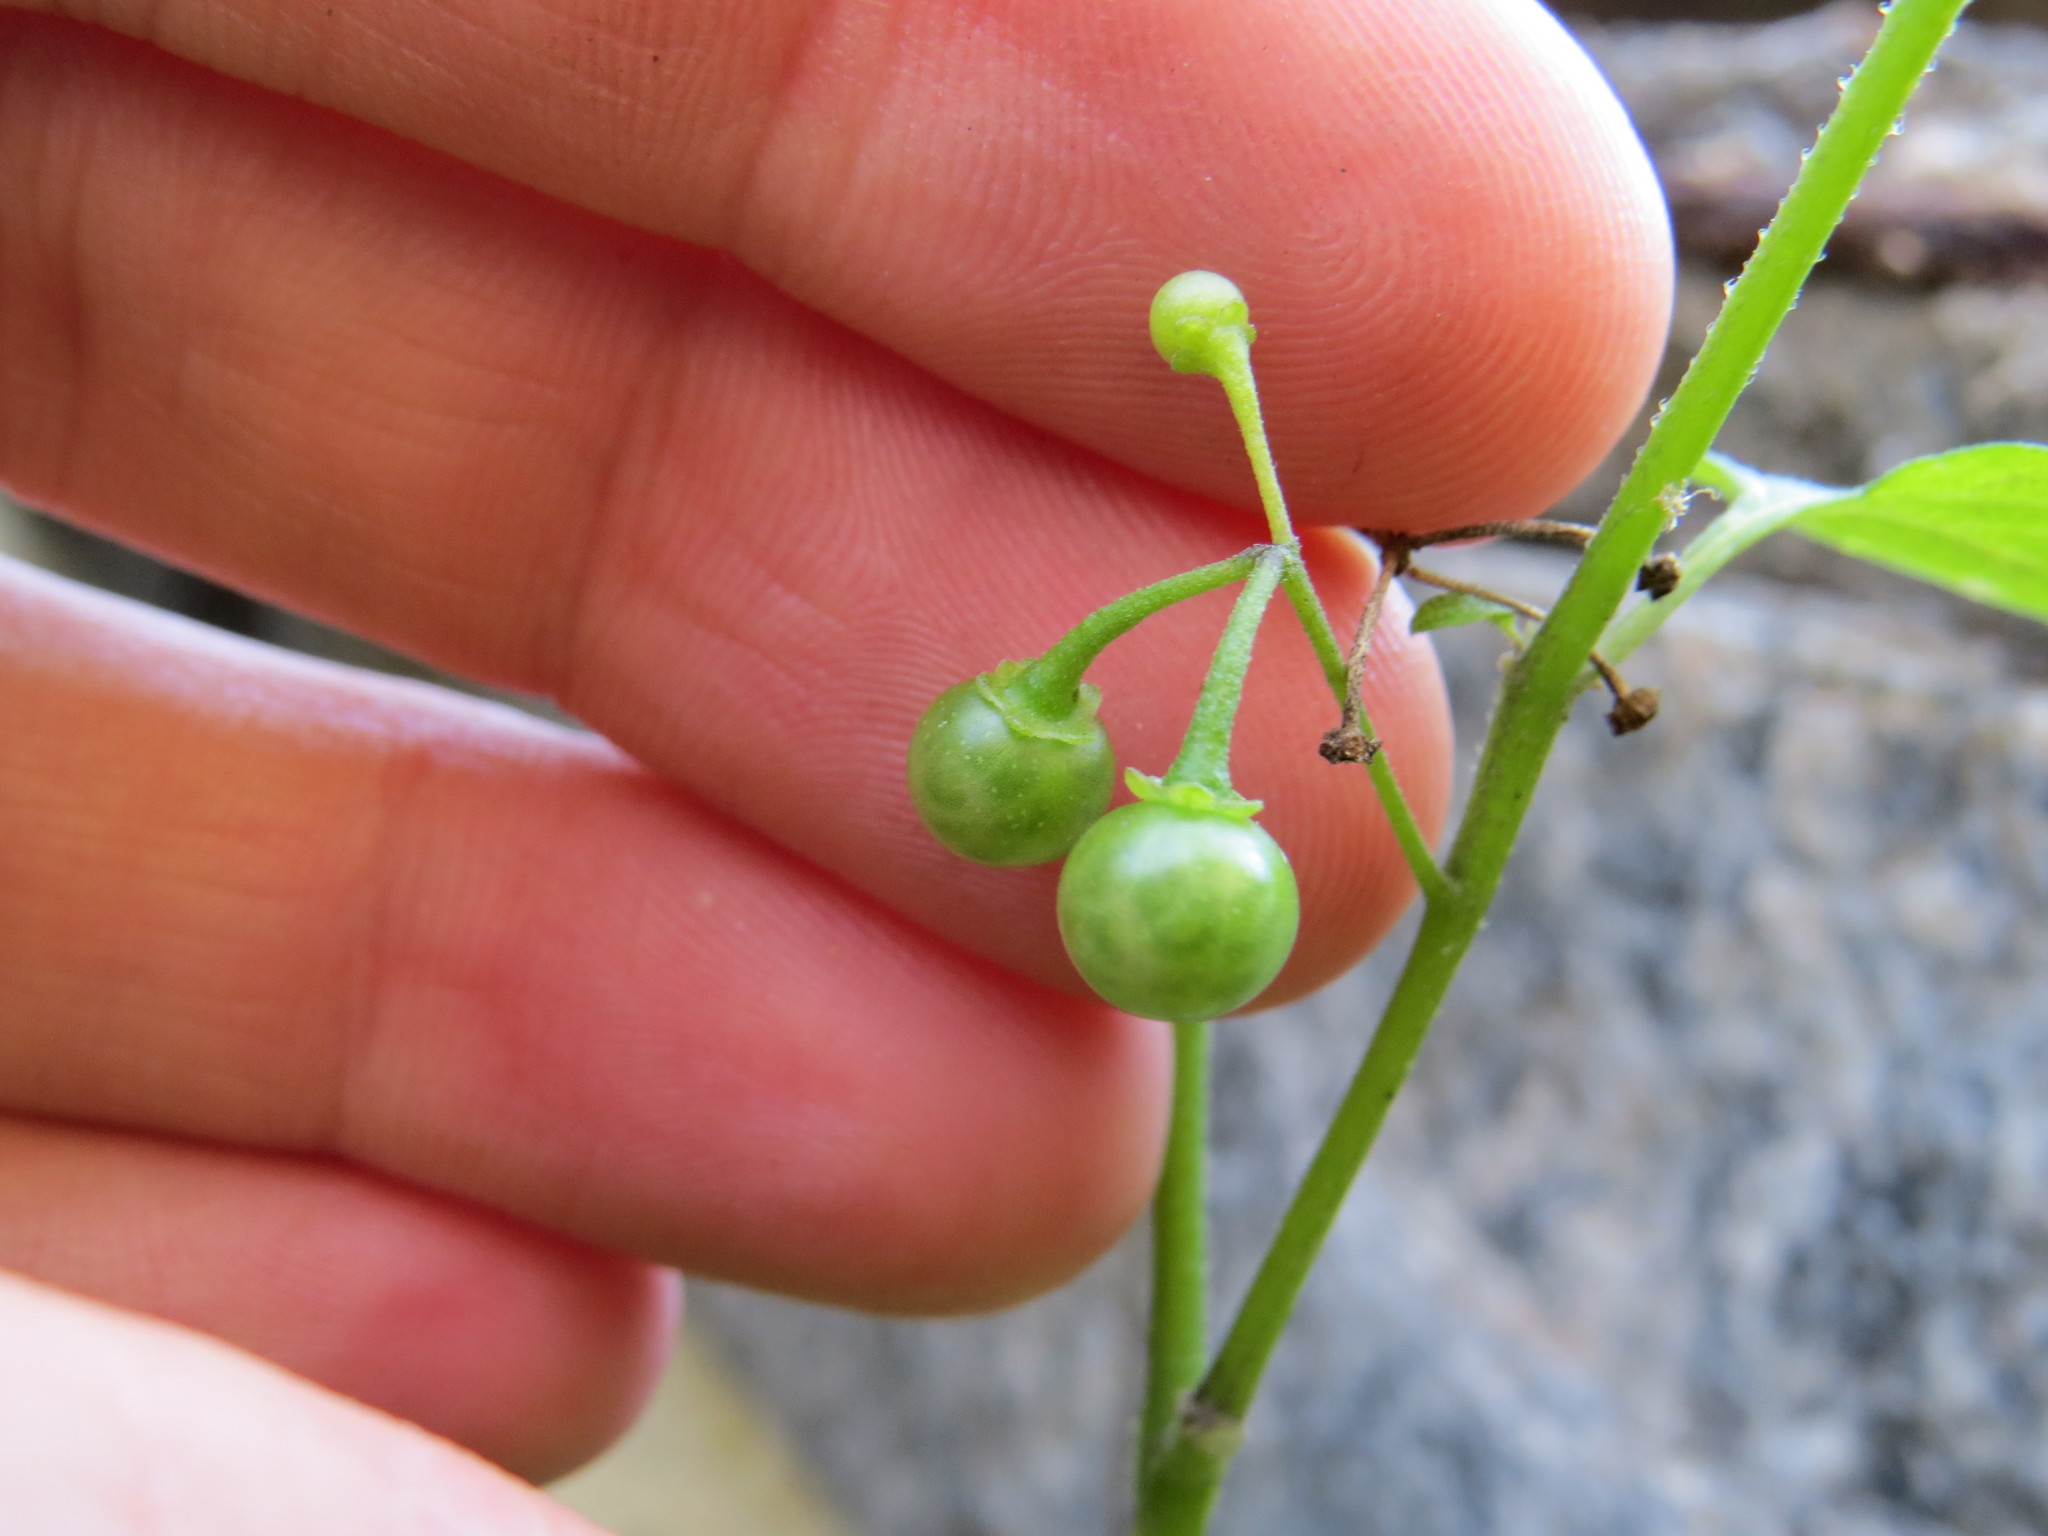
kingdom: Plantae
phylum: Tracheophyta
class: Magnoliopsida
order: Solanales
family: Solanaceae
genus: Solanum
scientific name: Solanum americanum
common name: American black nightshade
